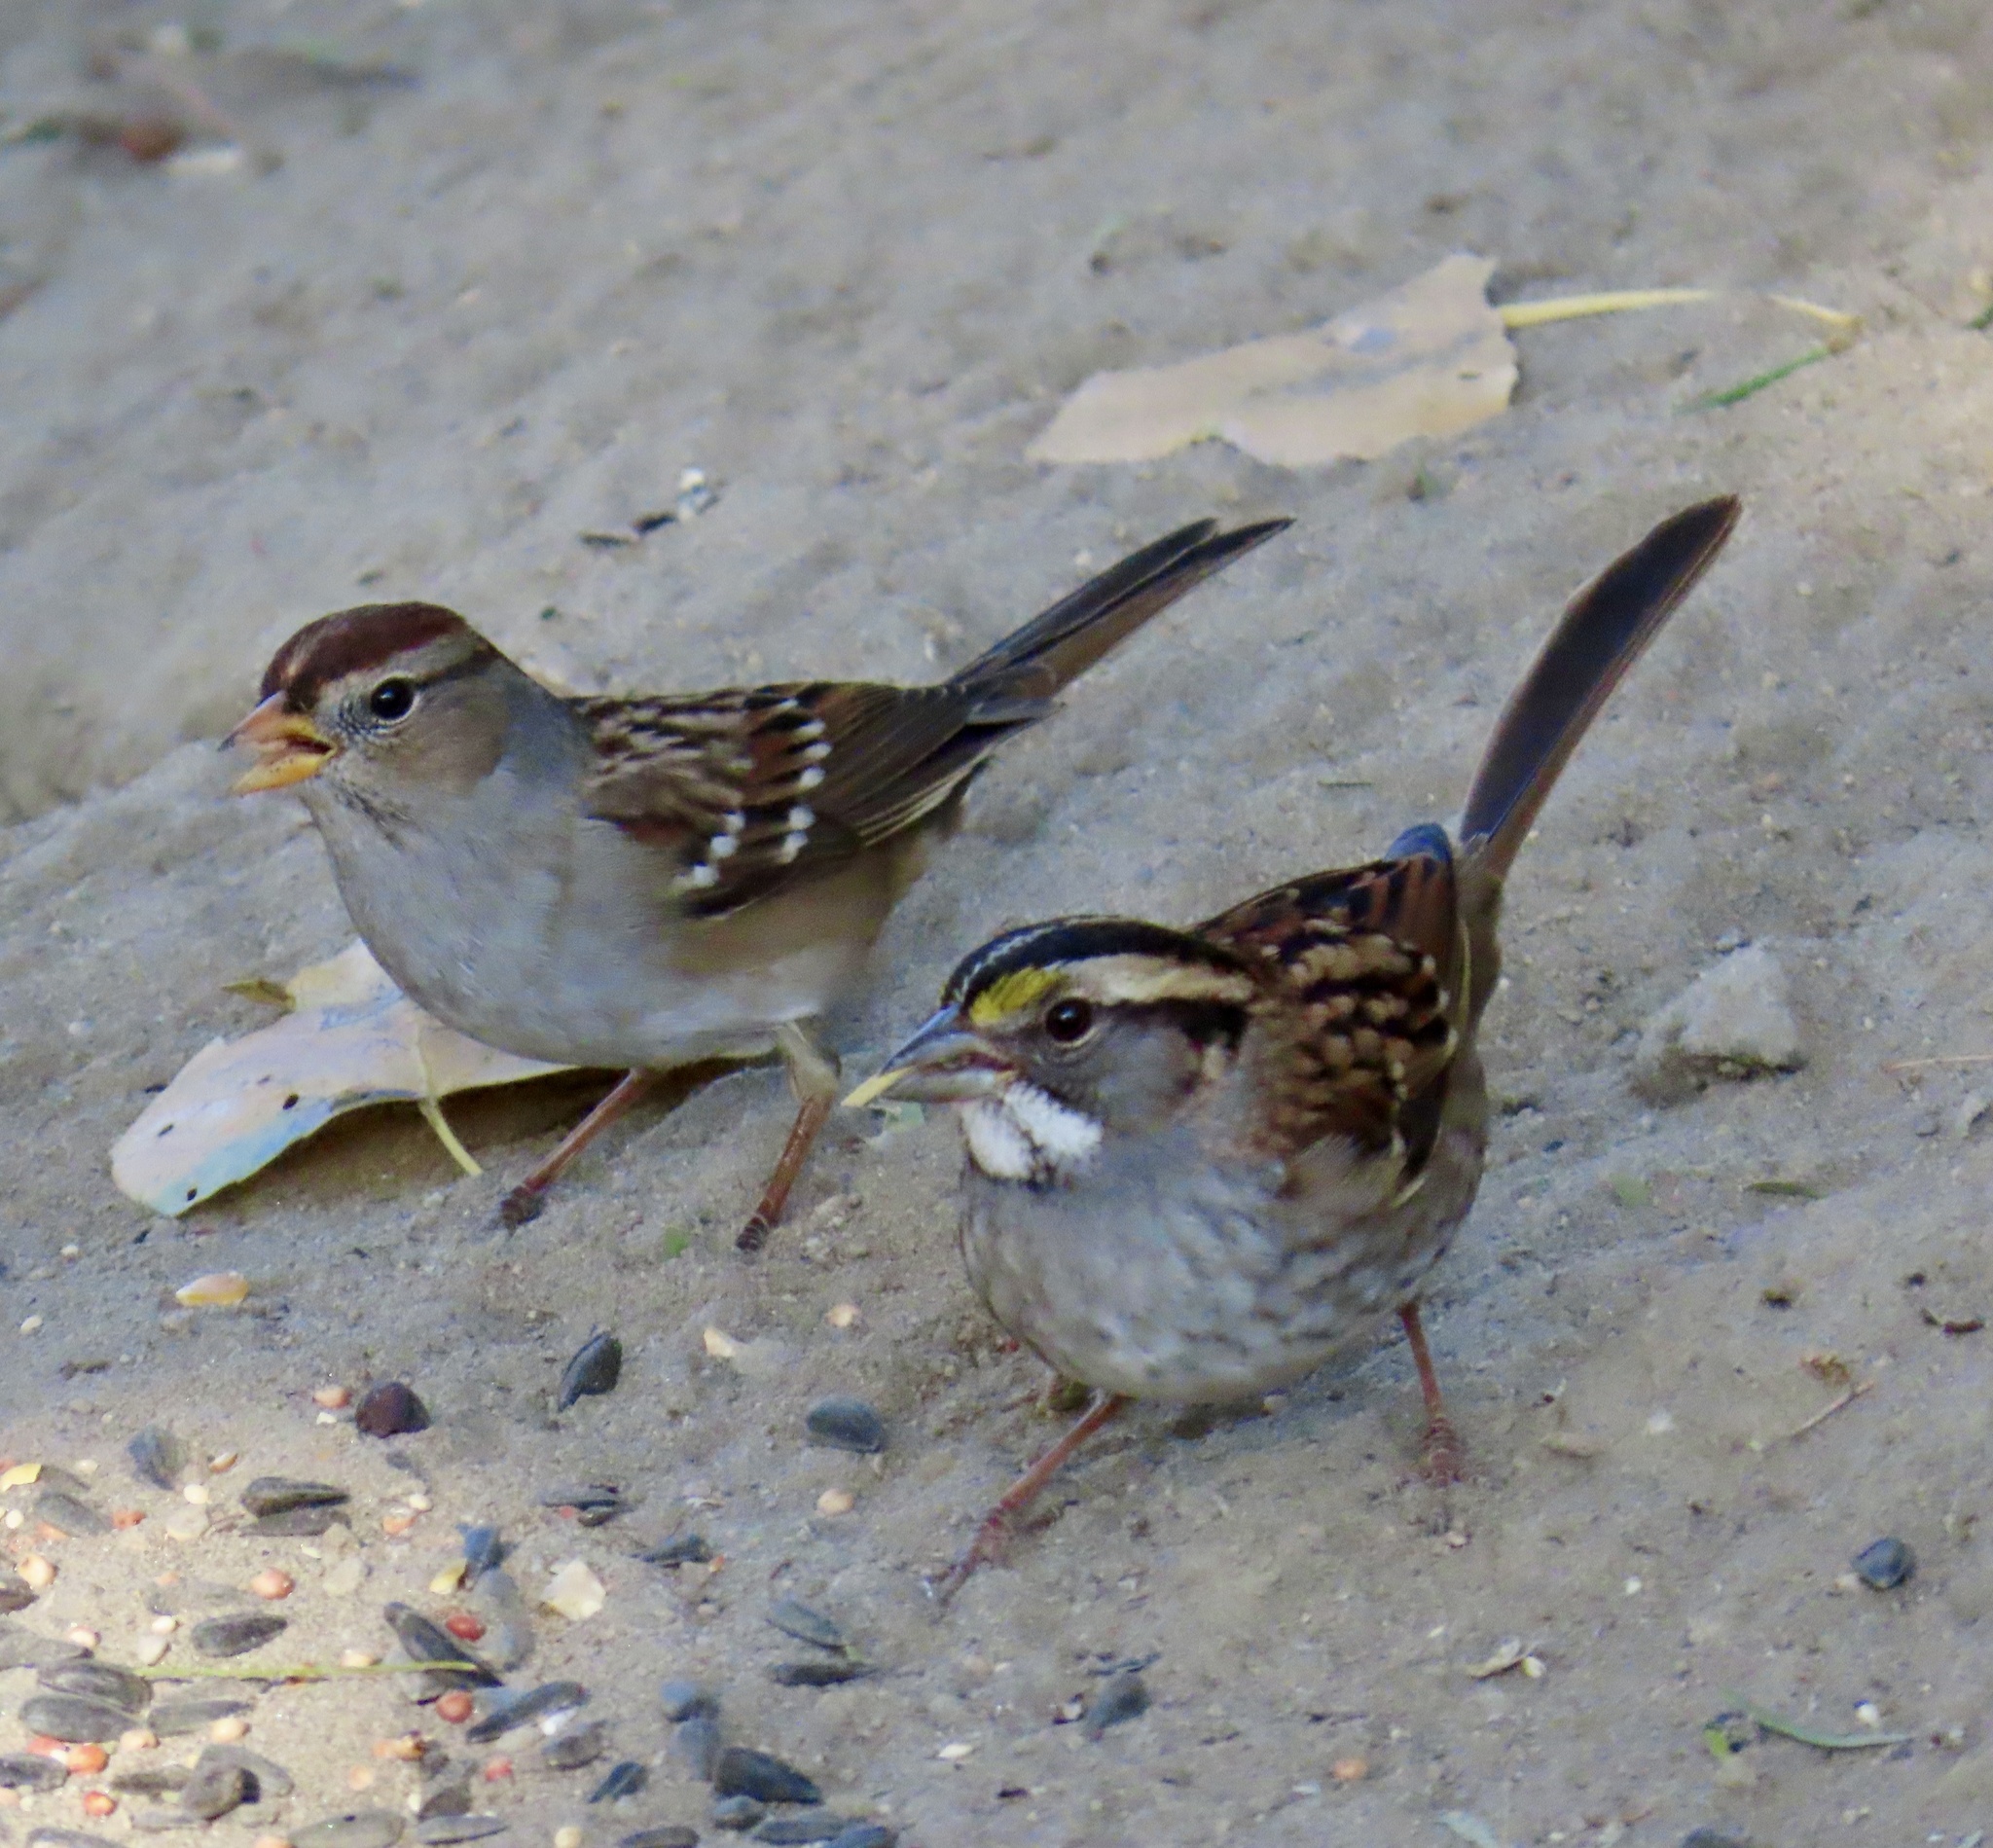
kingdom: Animalia
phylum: Chordata
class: Aves
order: Passeriformes
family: Passerellidae
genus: Zonotrichia
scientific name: Zonotrichia albicollis
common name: White-throated sparrow
